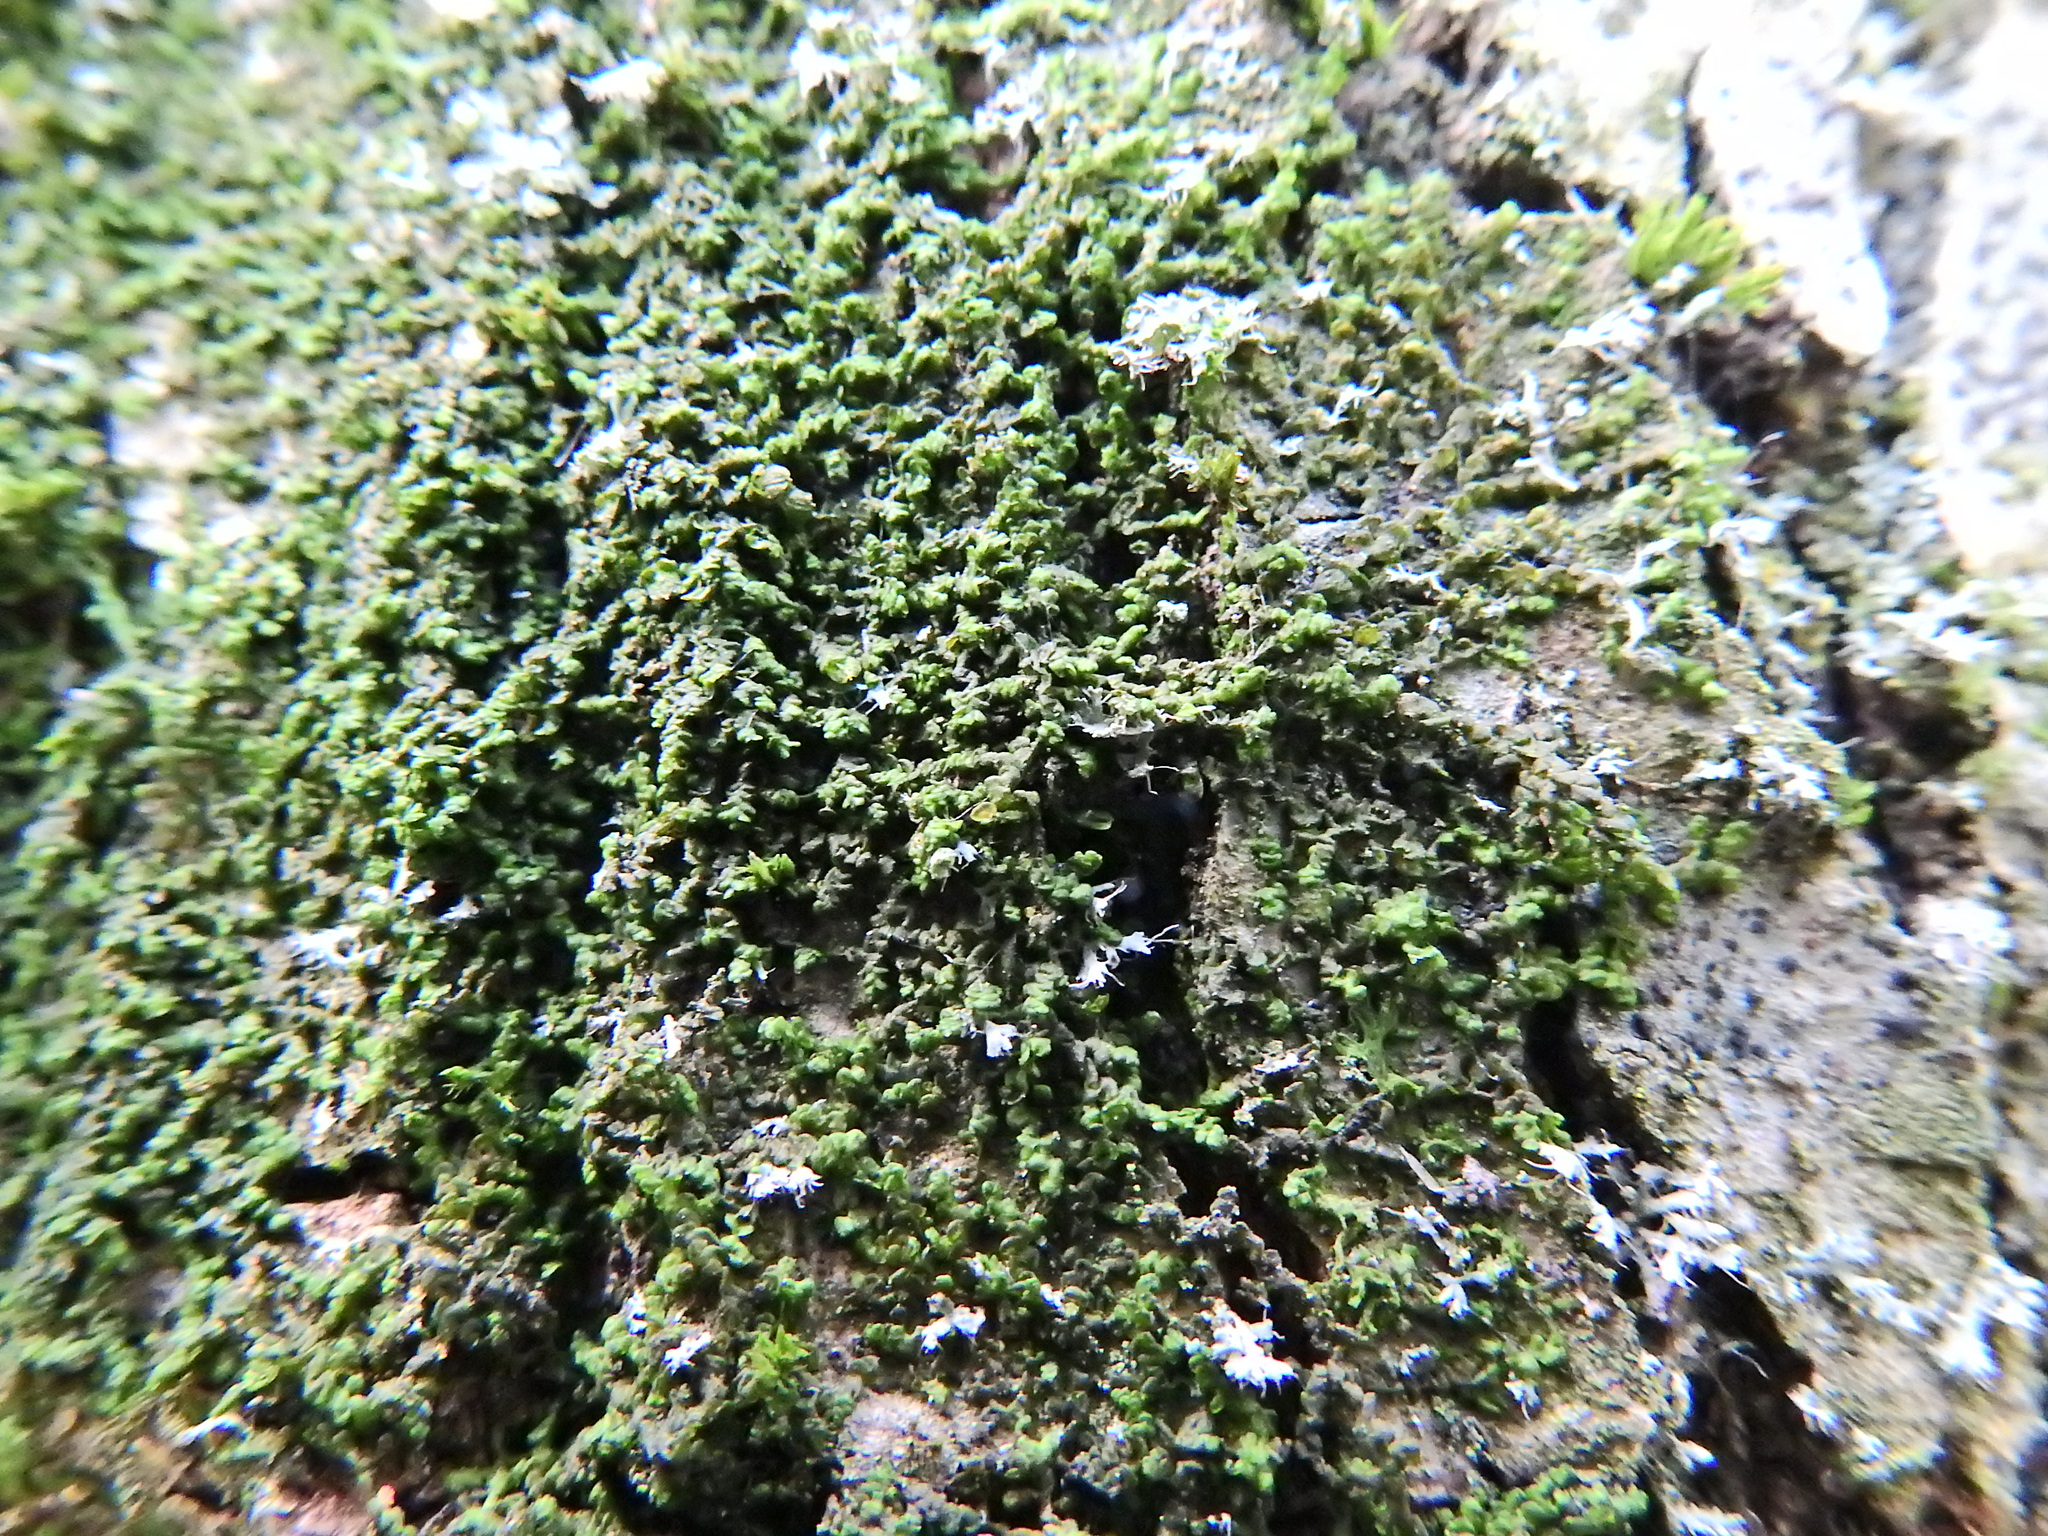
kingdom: Plantae
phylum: Marchantiophyta
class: Jungermanniopsida
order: Porellales
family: Frullaniaceae
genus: Frullania
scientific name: Frullania dilatata
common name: Dilated scalewort
